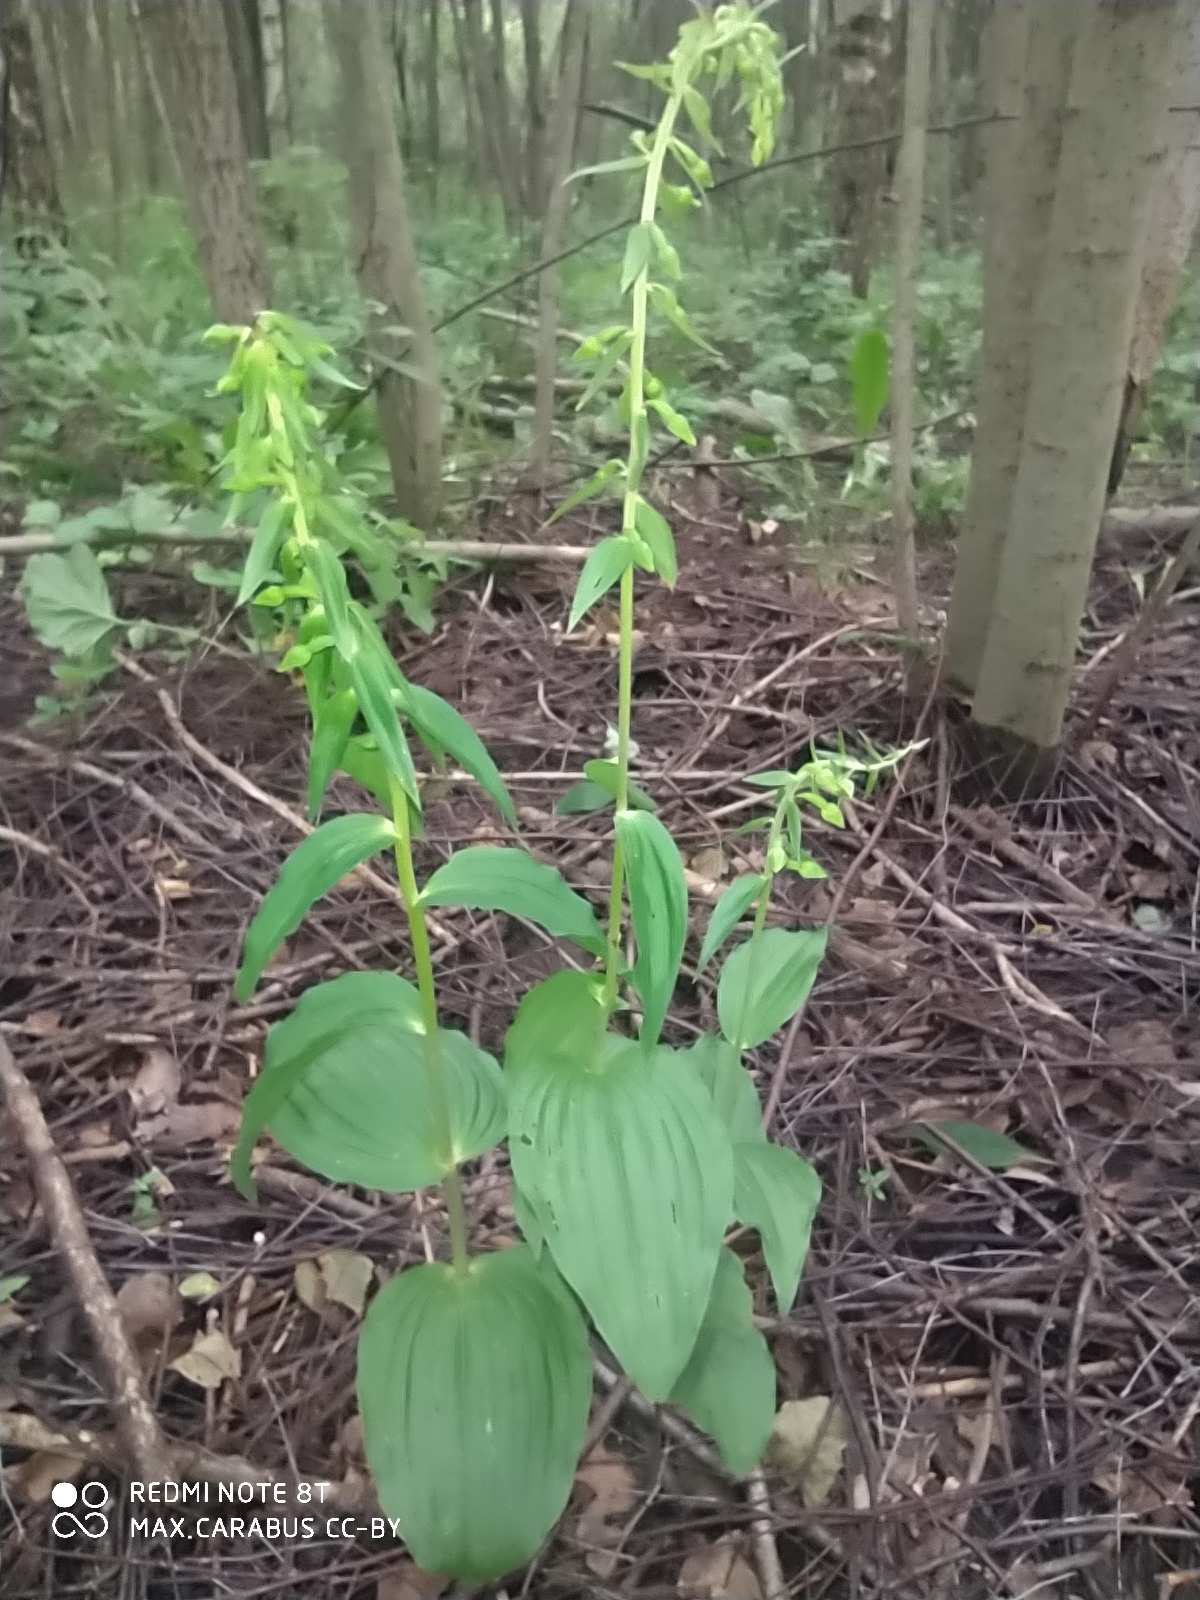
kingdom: Plantae
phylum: Tracheophyta
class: Liliopsida
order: Asparagales
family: Orchidaceae
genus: Epipactis
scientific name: Epipactis helleborine
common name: Broad-leaved helleborine
